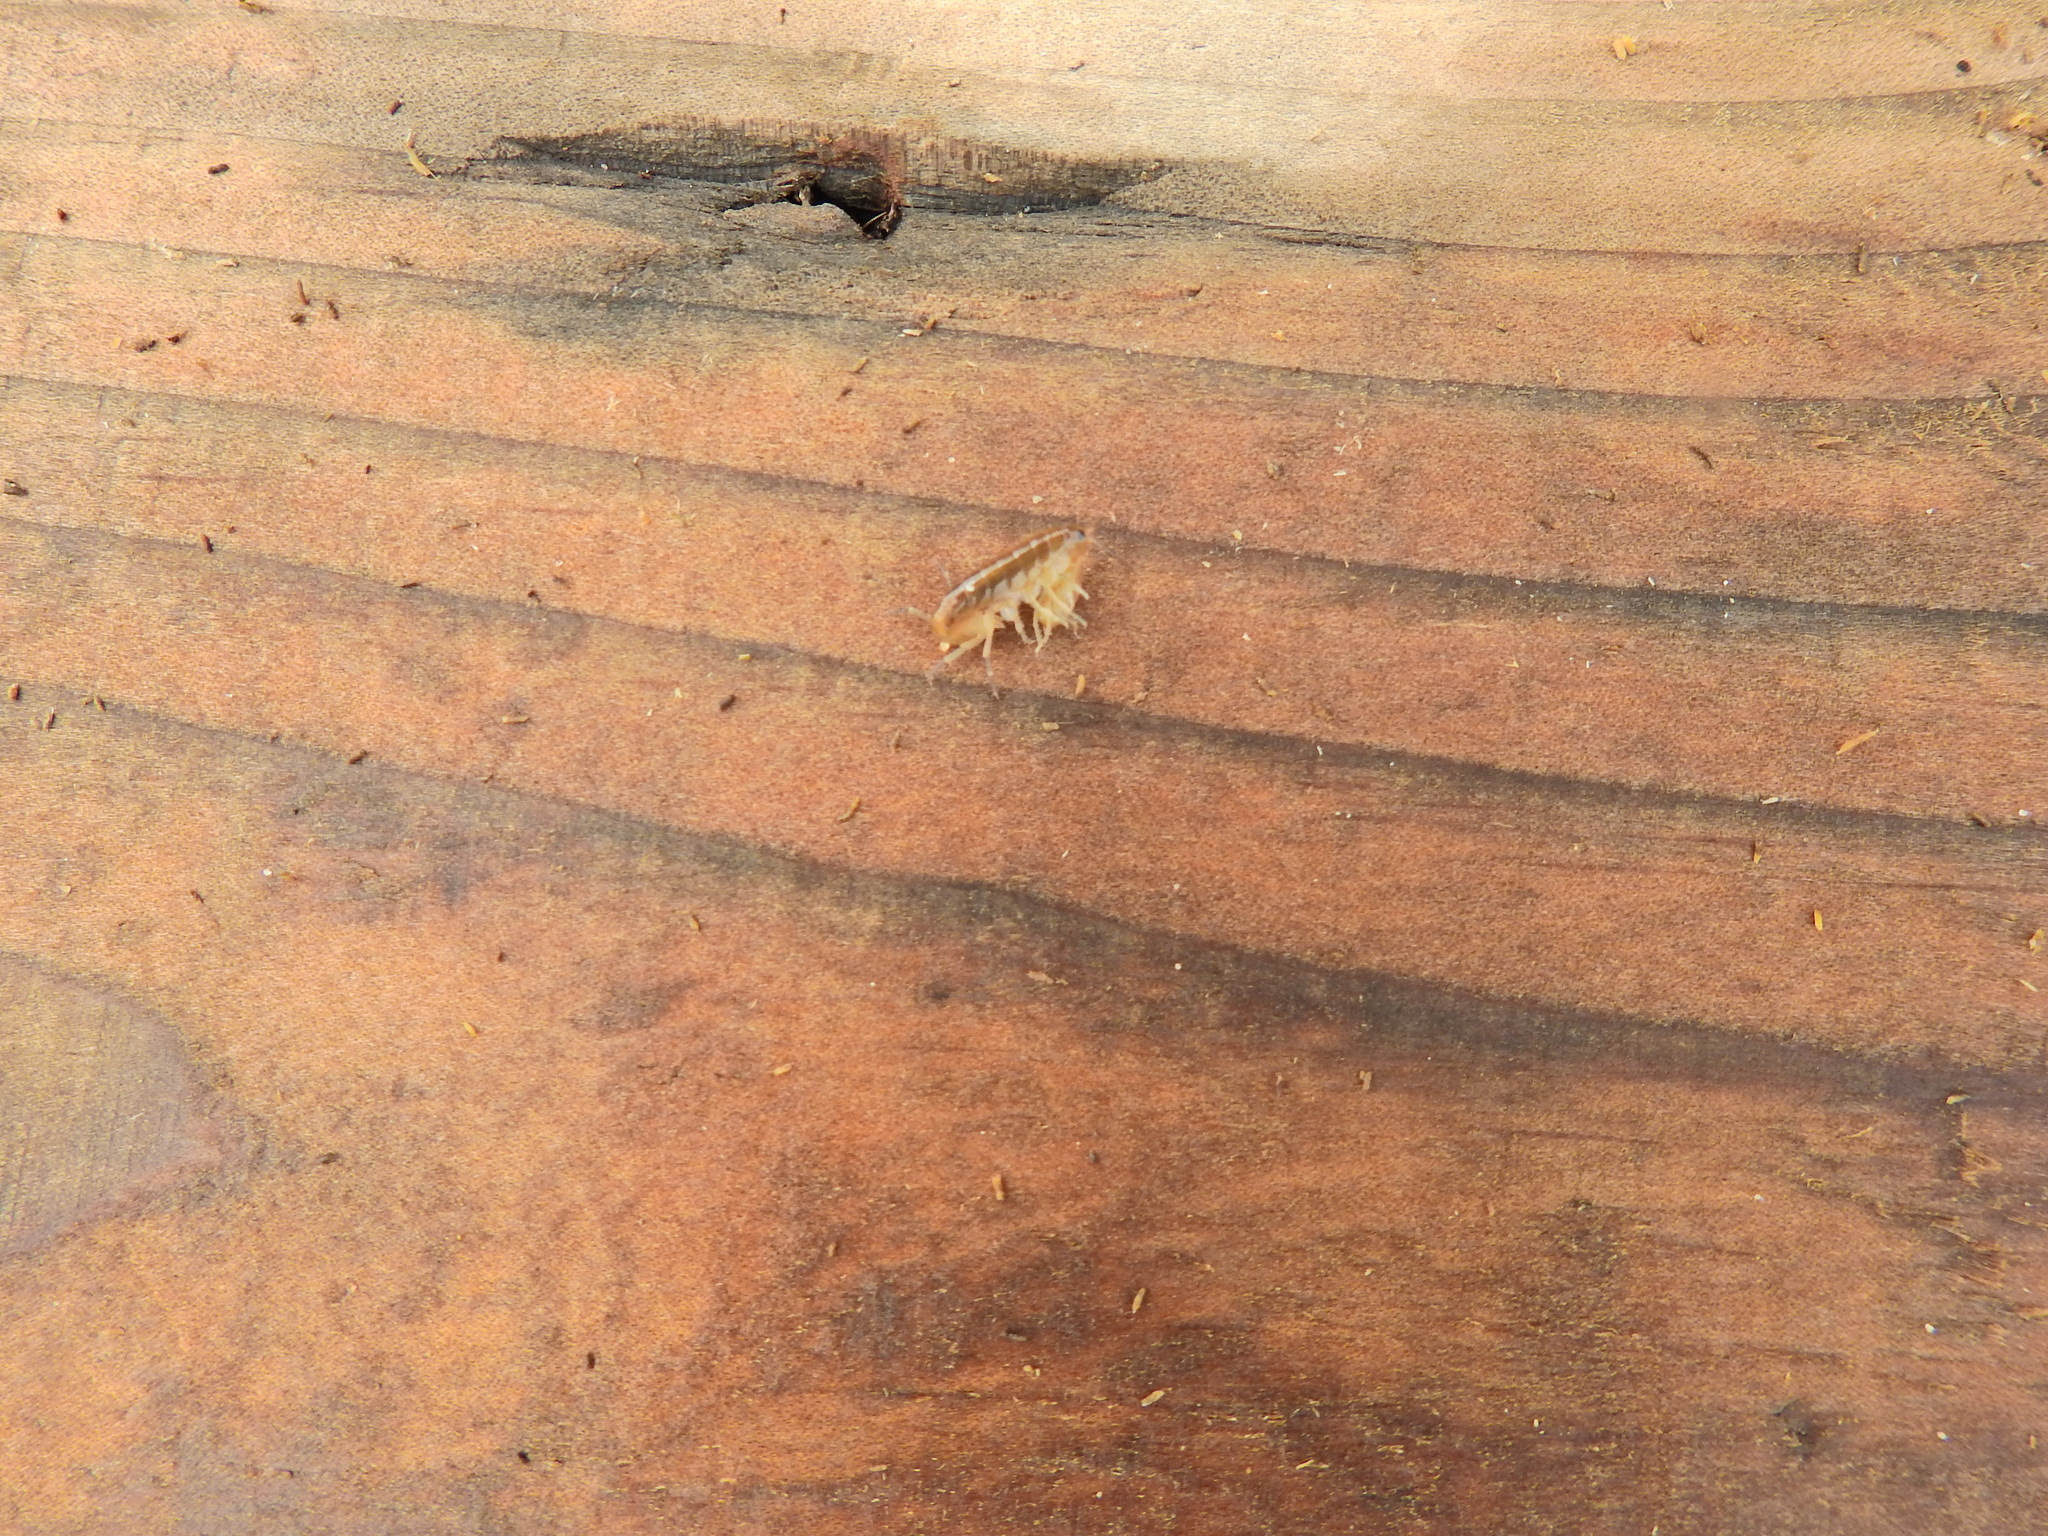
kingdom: Animalia
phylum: Arthropoda
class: Malacostraca
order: Amphipoda
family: Talitridae
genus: Talitrus
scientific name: Talitrus saltator
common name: Sand hopper
